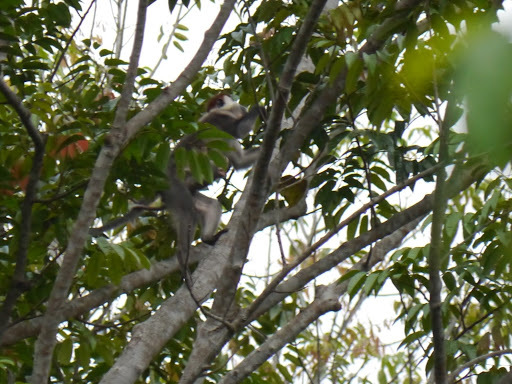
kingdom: Animalia
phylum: Chordata
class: Mammalia
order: Primates
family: Cercopithecidae
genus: Cercocebus
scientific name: Cercocebus torquatus
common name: Collared mangabey
